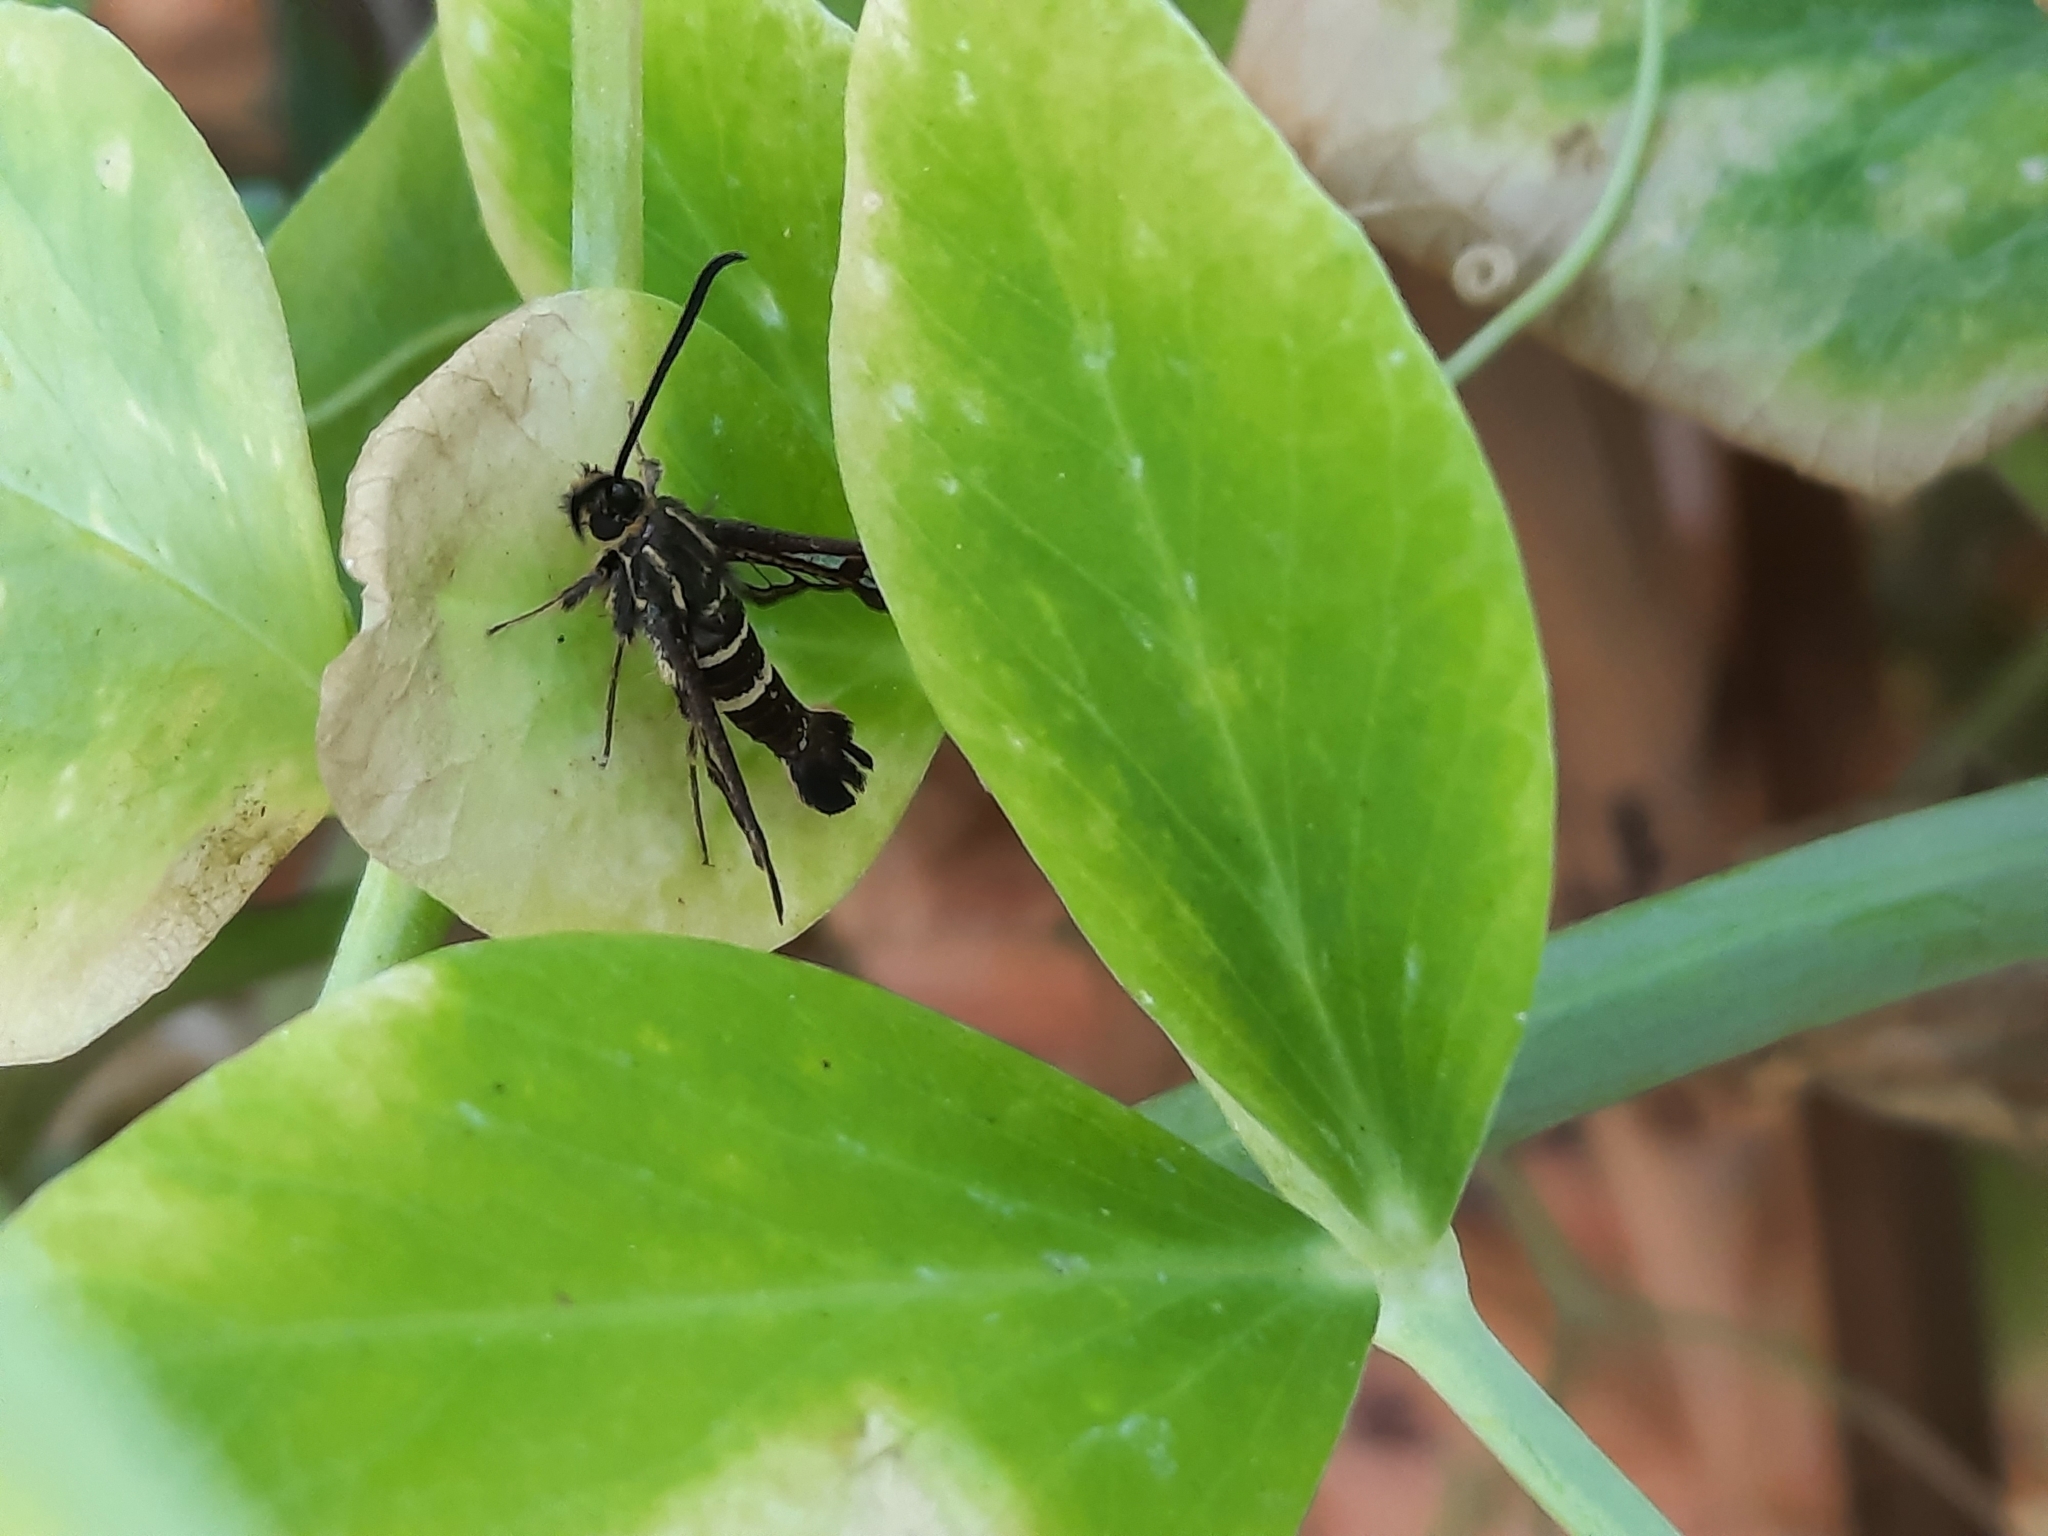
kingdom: Animalia
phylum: Arthropoda
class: Insecta
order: Lepidoptera
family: Sesiidae
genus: Synanthedon
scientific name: Synanthedon bibionipennis
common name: Strawberry crown moth
